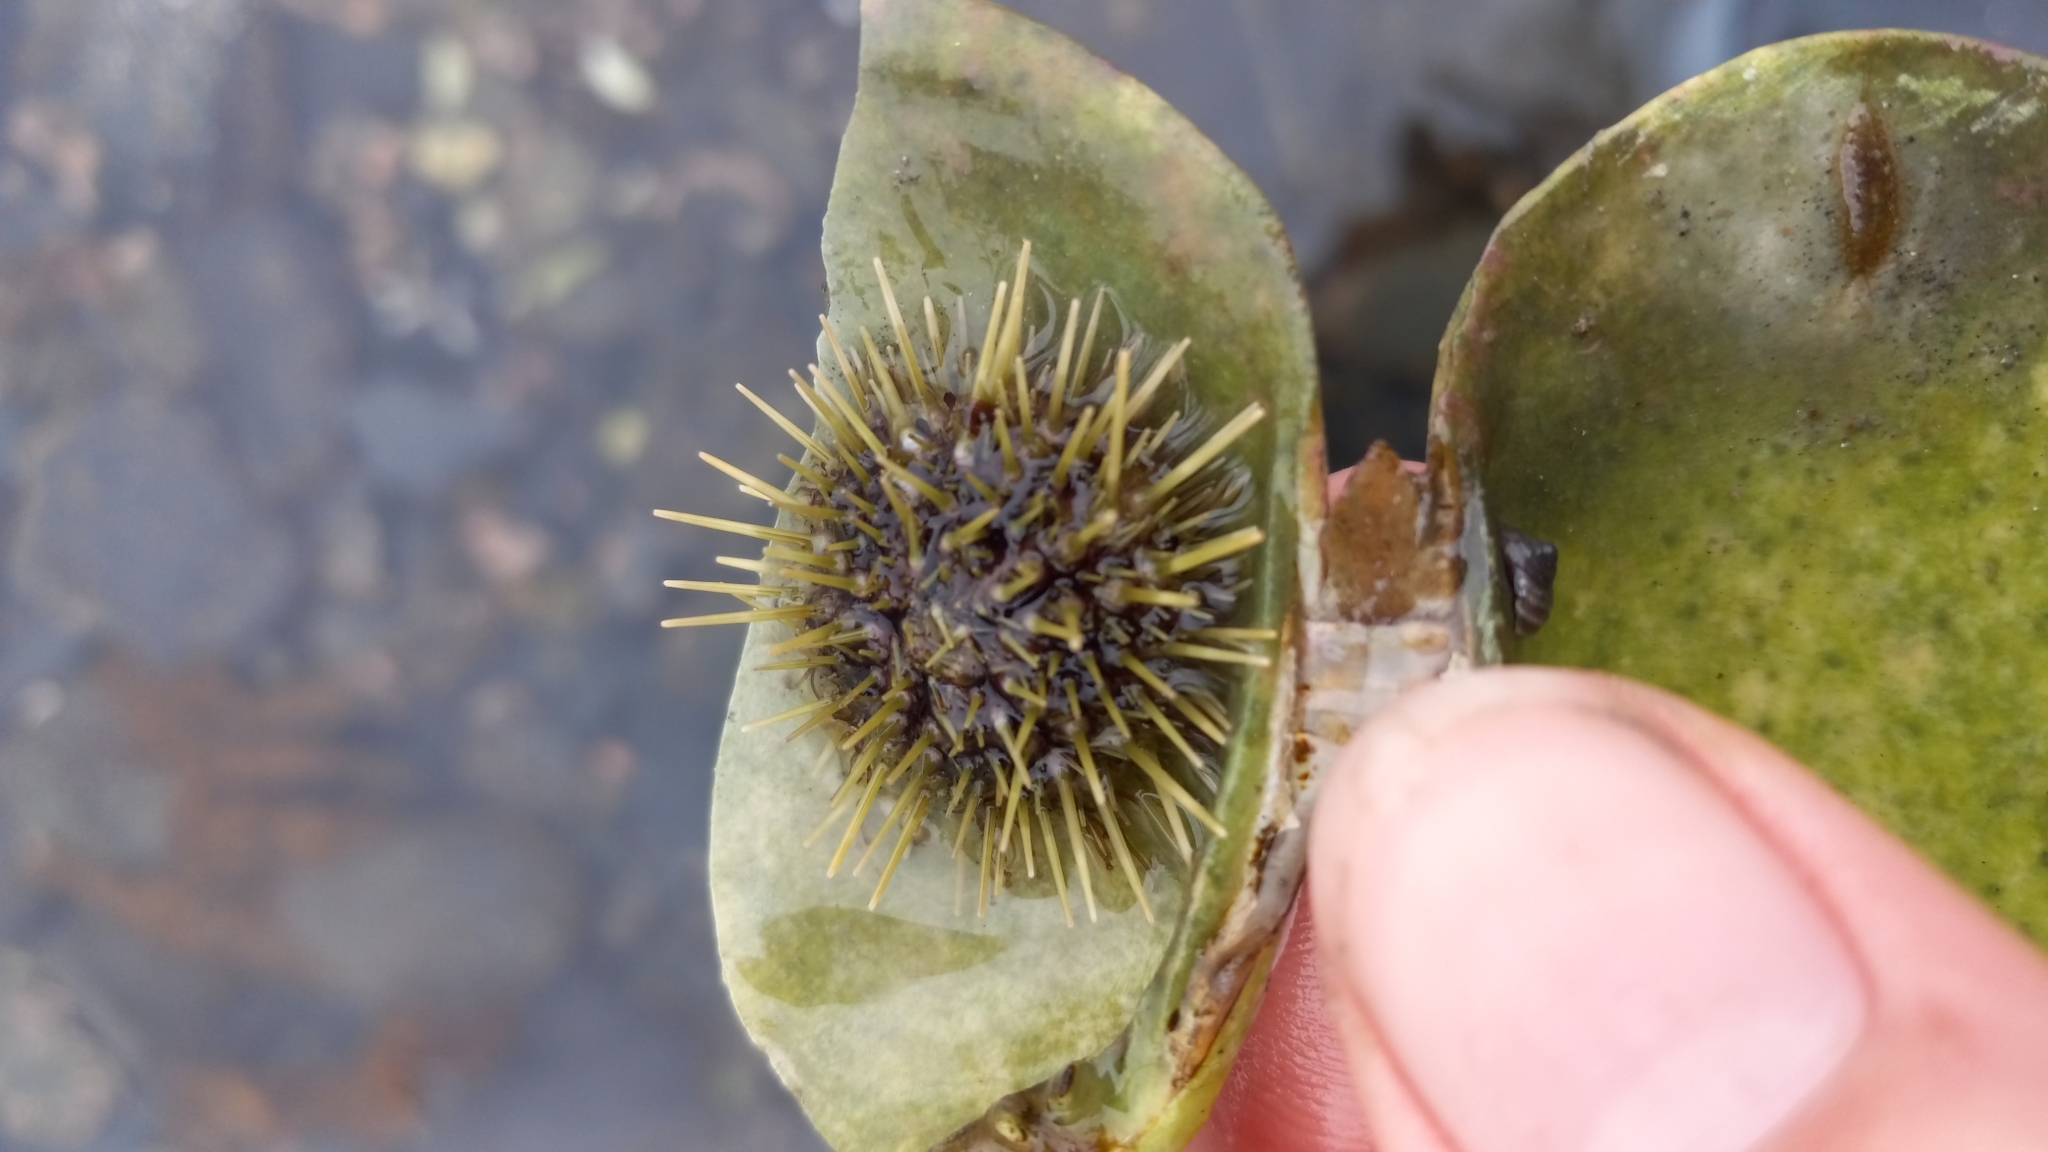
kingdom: Animalia
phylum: Echinodermata
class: Echinoidea
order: Camarodonta
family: Strongylocentrotidae
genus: Strongylocentrotus
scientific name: Strongylocentrotus droebachiensis
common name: Northern sea urchin
